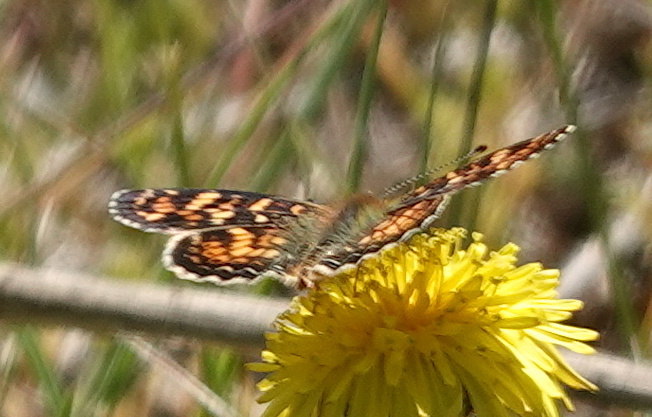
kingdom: Animalia
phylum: Arthropoda
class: Insecta
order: Lepidoptera
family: Nymphalidae
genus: Phyciodes
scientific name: Phyciodes tharos
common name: Pearl crescent
